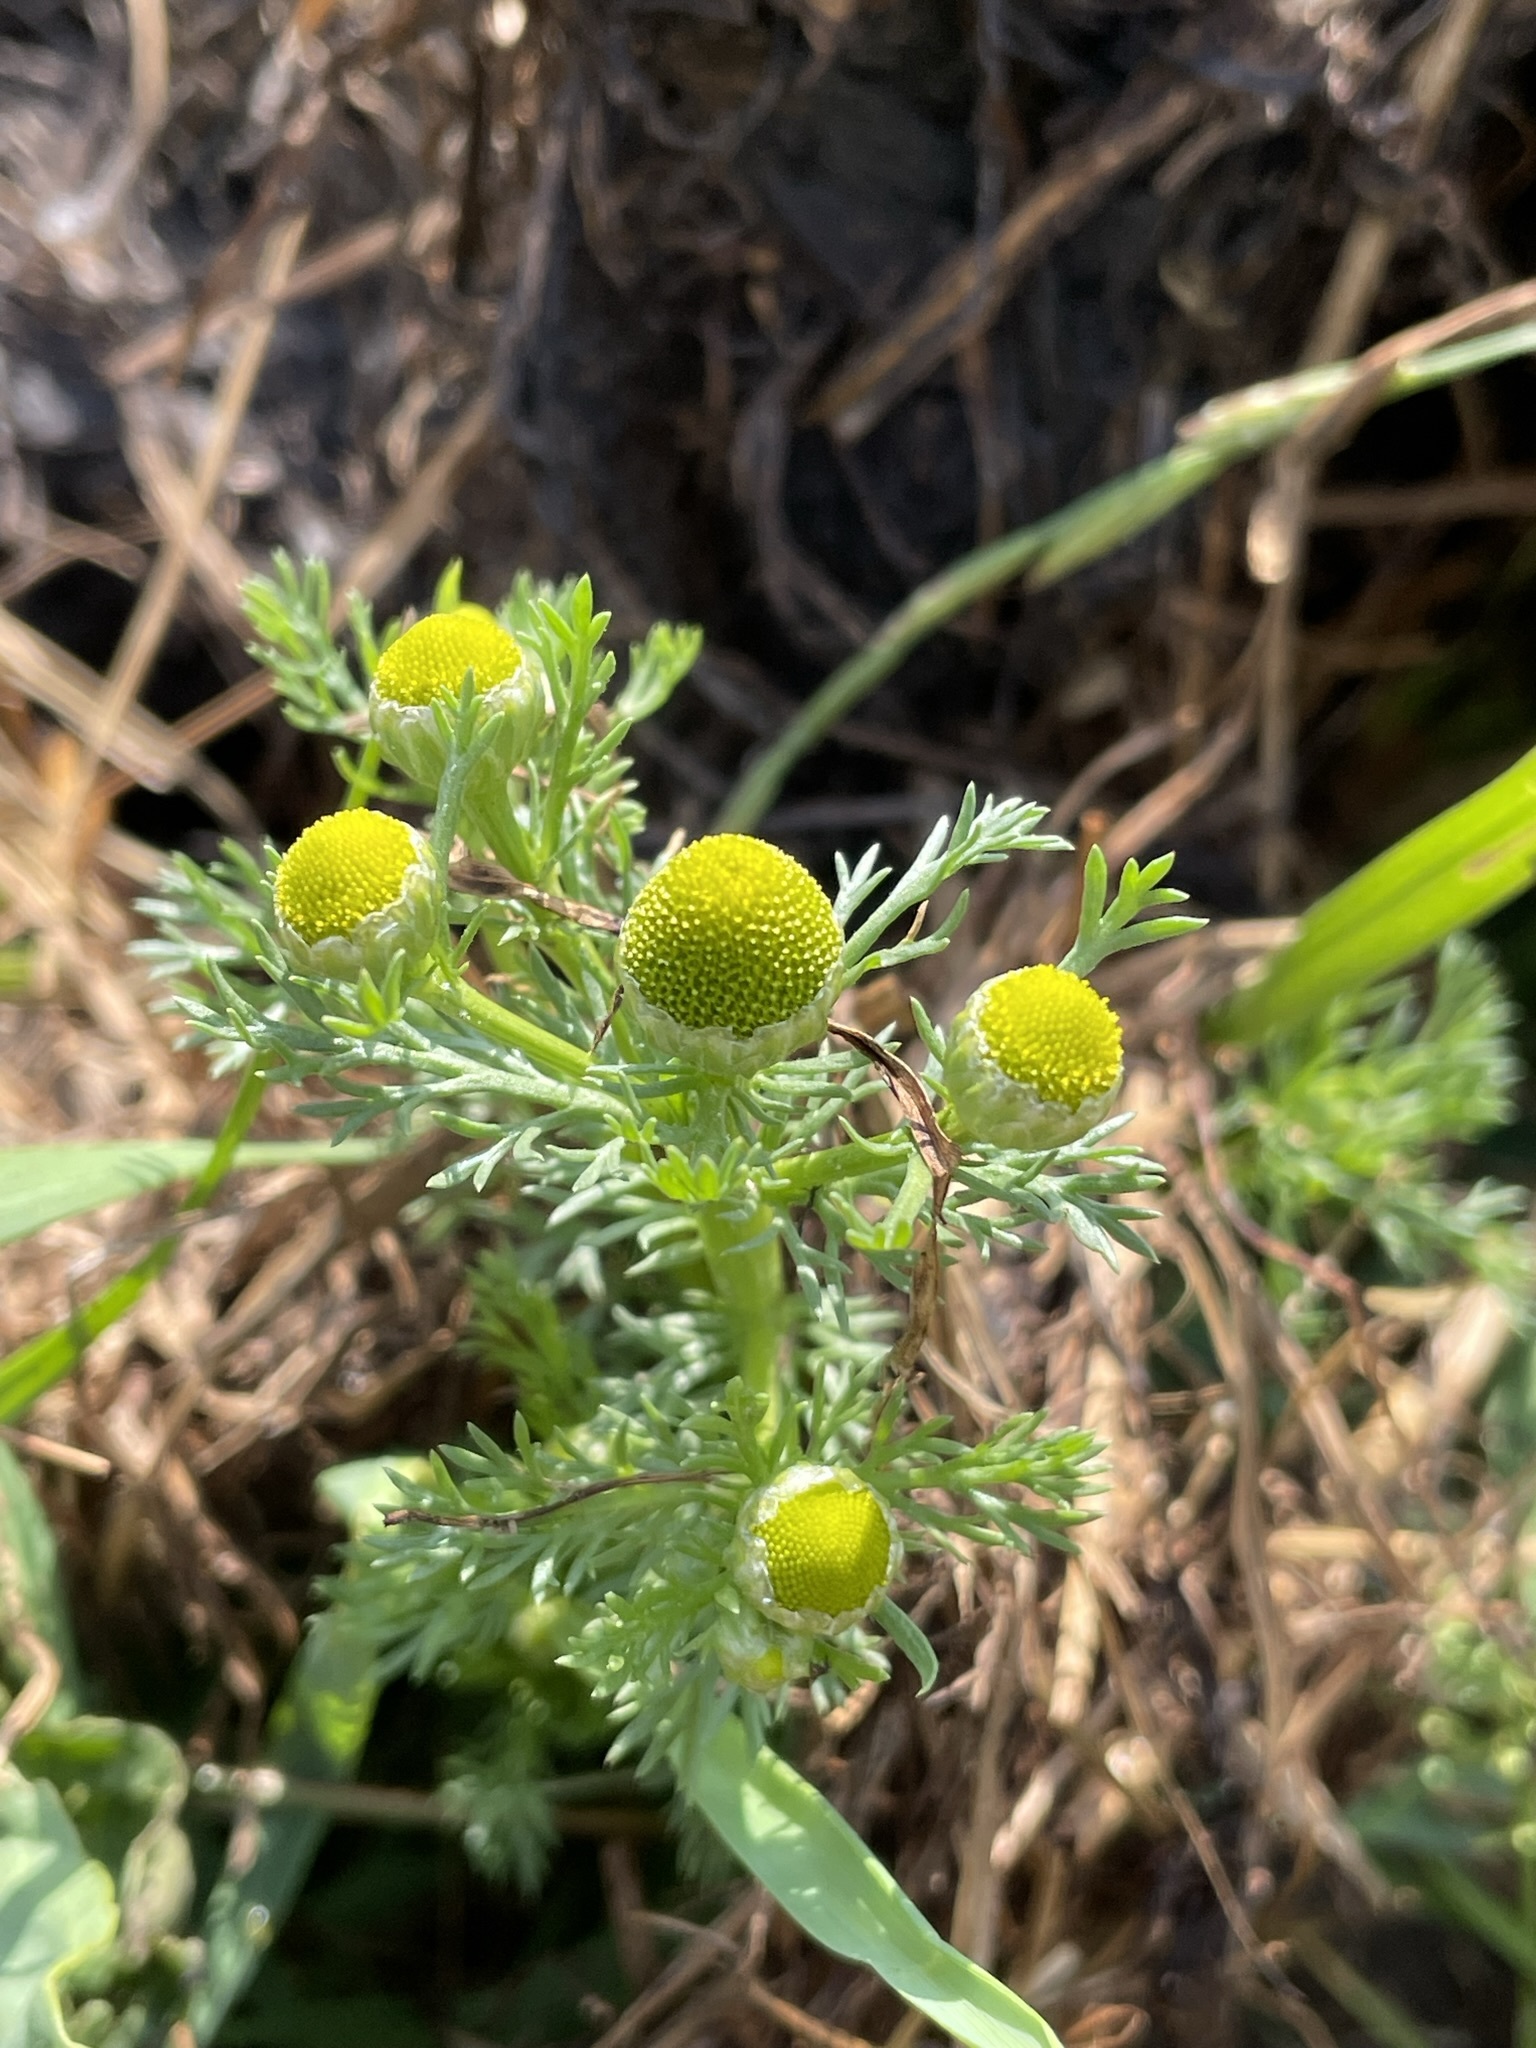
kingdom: Plantae
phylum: Tracheophyta
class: Magnoliopsida
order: Asterales
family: Asteraceae
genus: Matricaria
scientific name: Matricaria discoidea
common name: Disc mayweed
